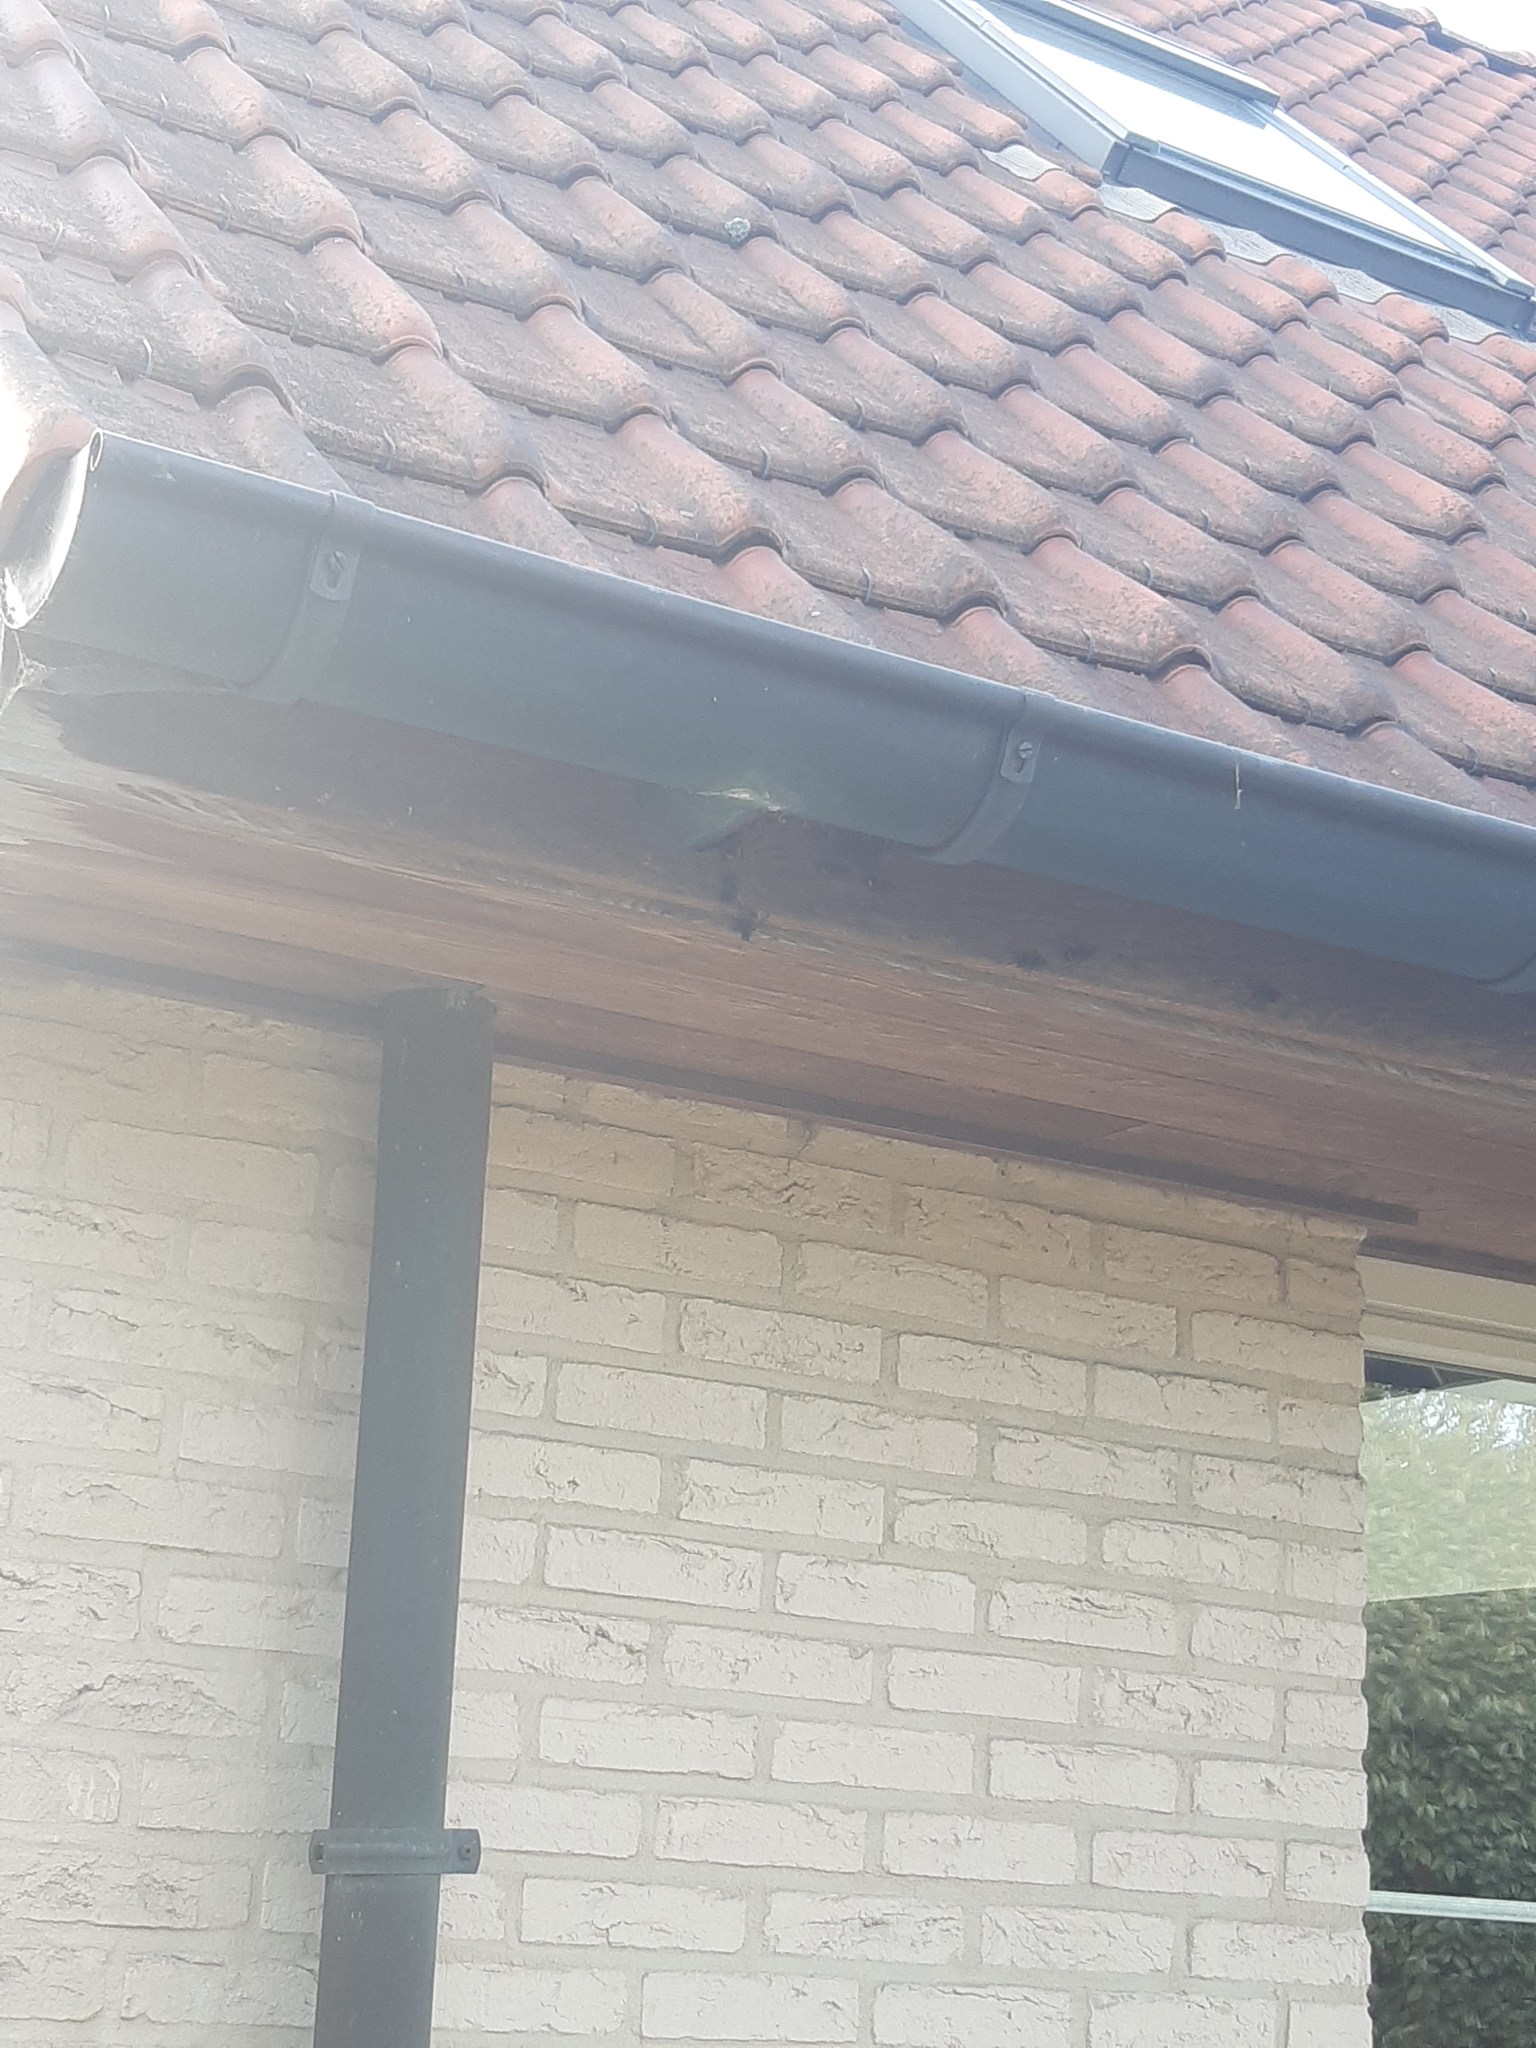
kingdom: Animalia
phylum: Arthropoda
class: Insecta
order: Hymenoptera
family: Vespidae
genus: Vespa
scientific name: Vespa velutina
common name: Asian hornet
